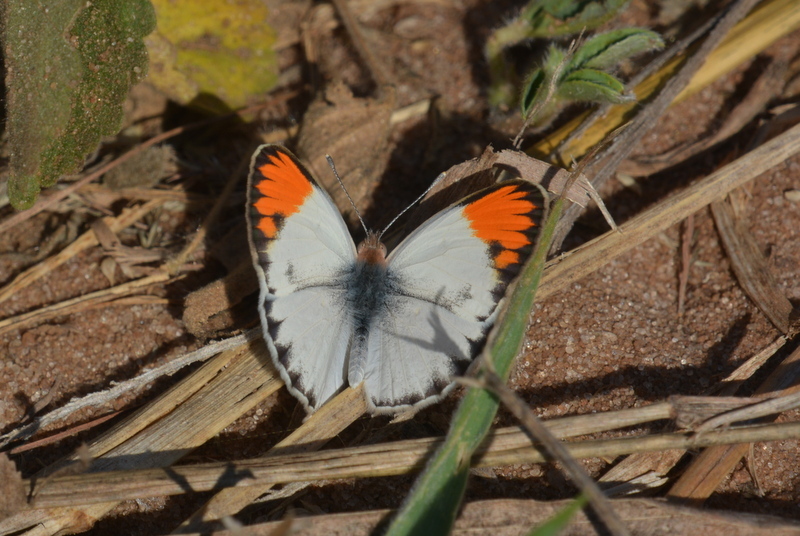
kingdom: Animalia
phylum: Arthropoda
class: Insecta
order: Lepidoptera
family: Pieridae
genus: Colotis
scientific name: Colotis evagore
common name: Desert orange-tip
